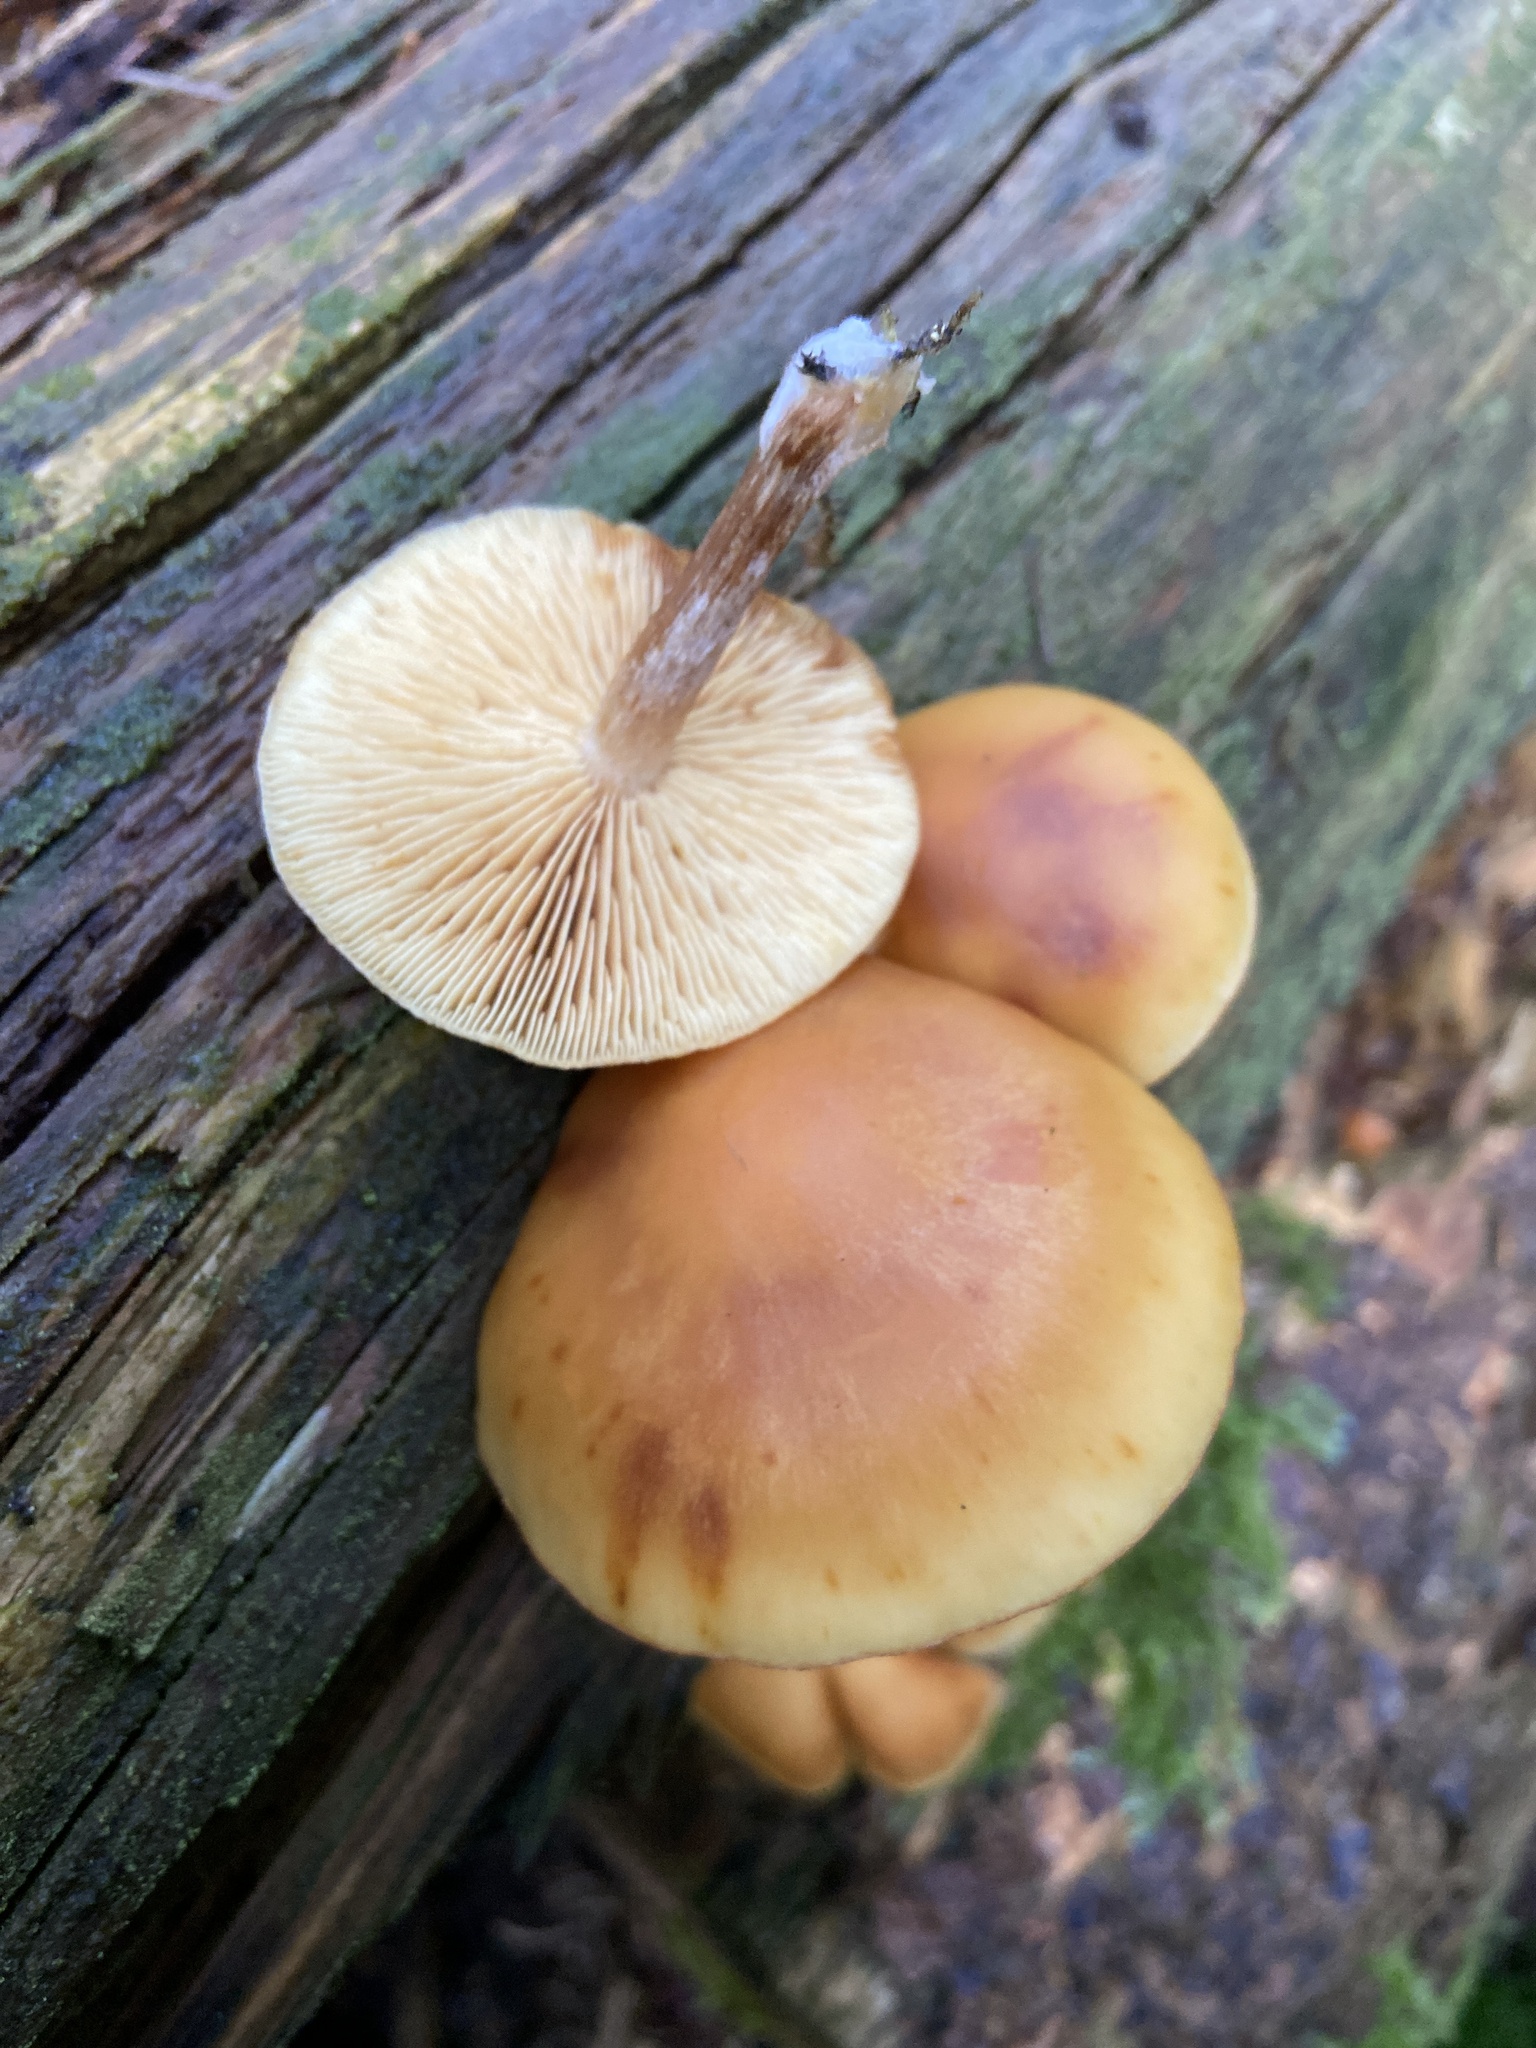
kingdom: Fungi
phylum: Basidiomycota
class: Agaricomycetes
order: Agaricales
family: Hymenogastraceae
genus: Gymnopilus
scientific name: Gymnopilus penetrans
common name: Common rustgill
